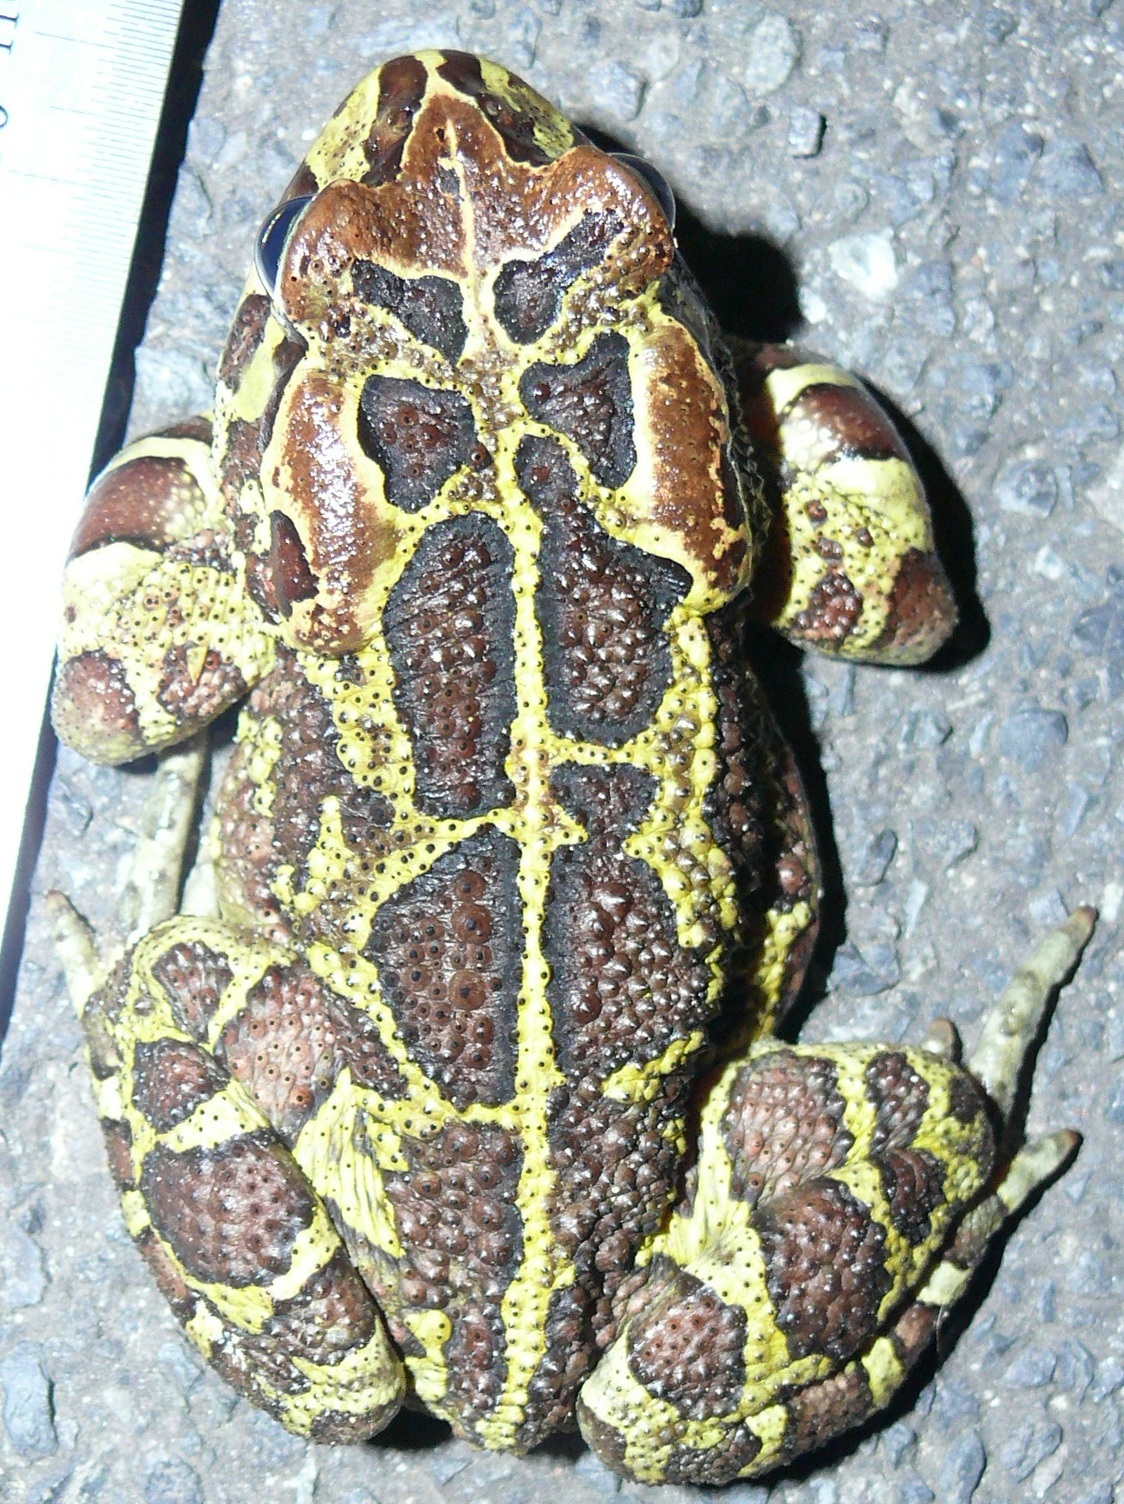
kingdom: Animalia
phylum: Chordata
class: Amphibia
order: Anura
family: Bufonidae
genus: Sclerophrys
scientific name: Sclerophrys pantherina
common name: Panther toad
